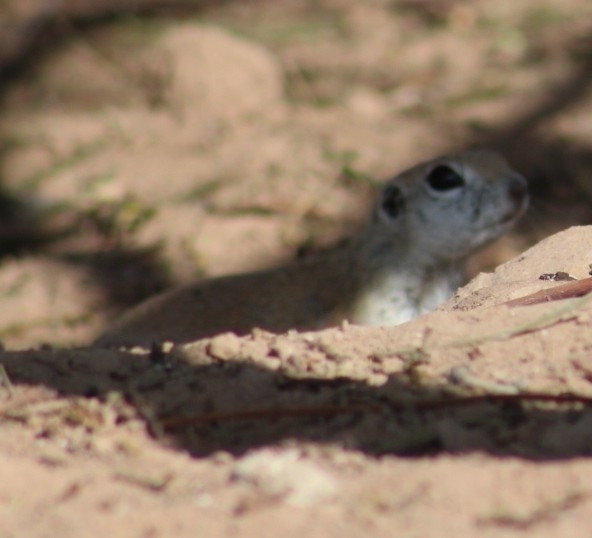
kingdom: Animalia
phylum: Chordata
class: Mammalia
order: Rodentia
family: Sciuridae
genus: Xerospermophilus
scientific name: Xerospermophilus tereticaudus
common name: Round-tailed ground squirrel
